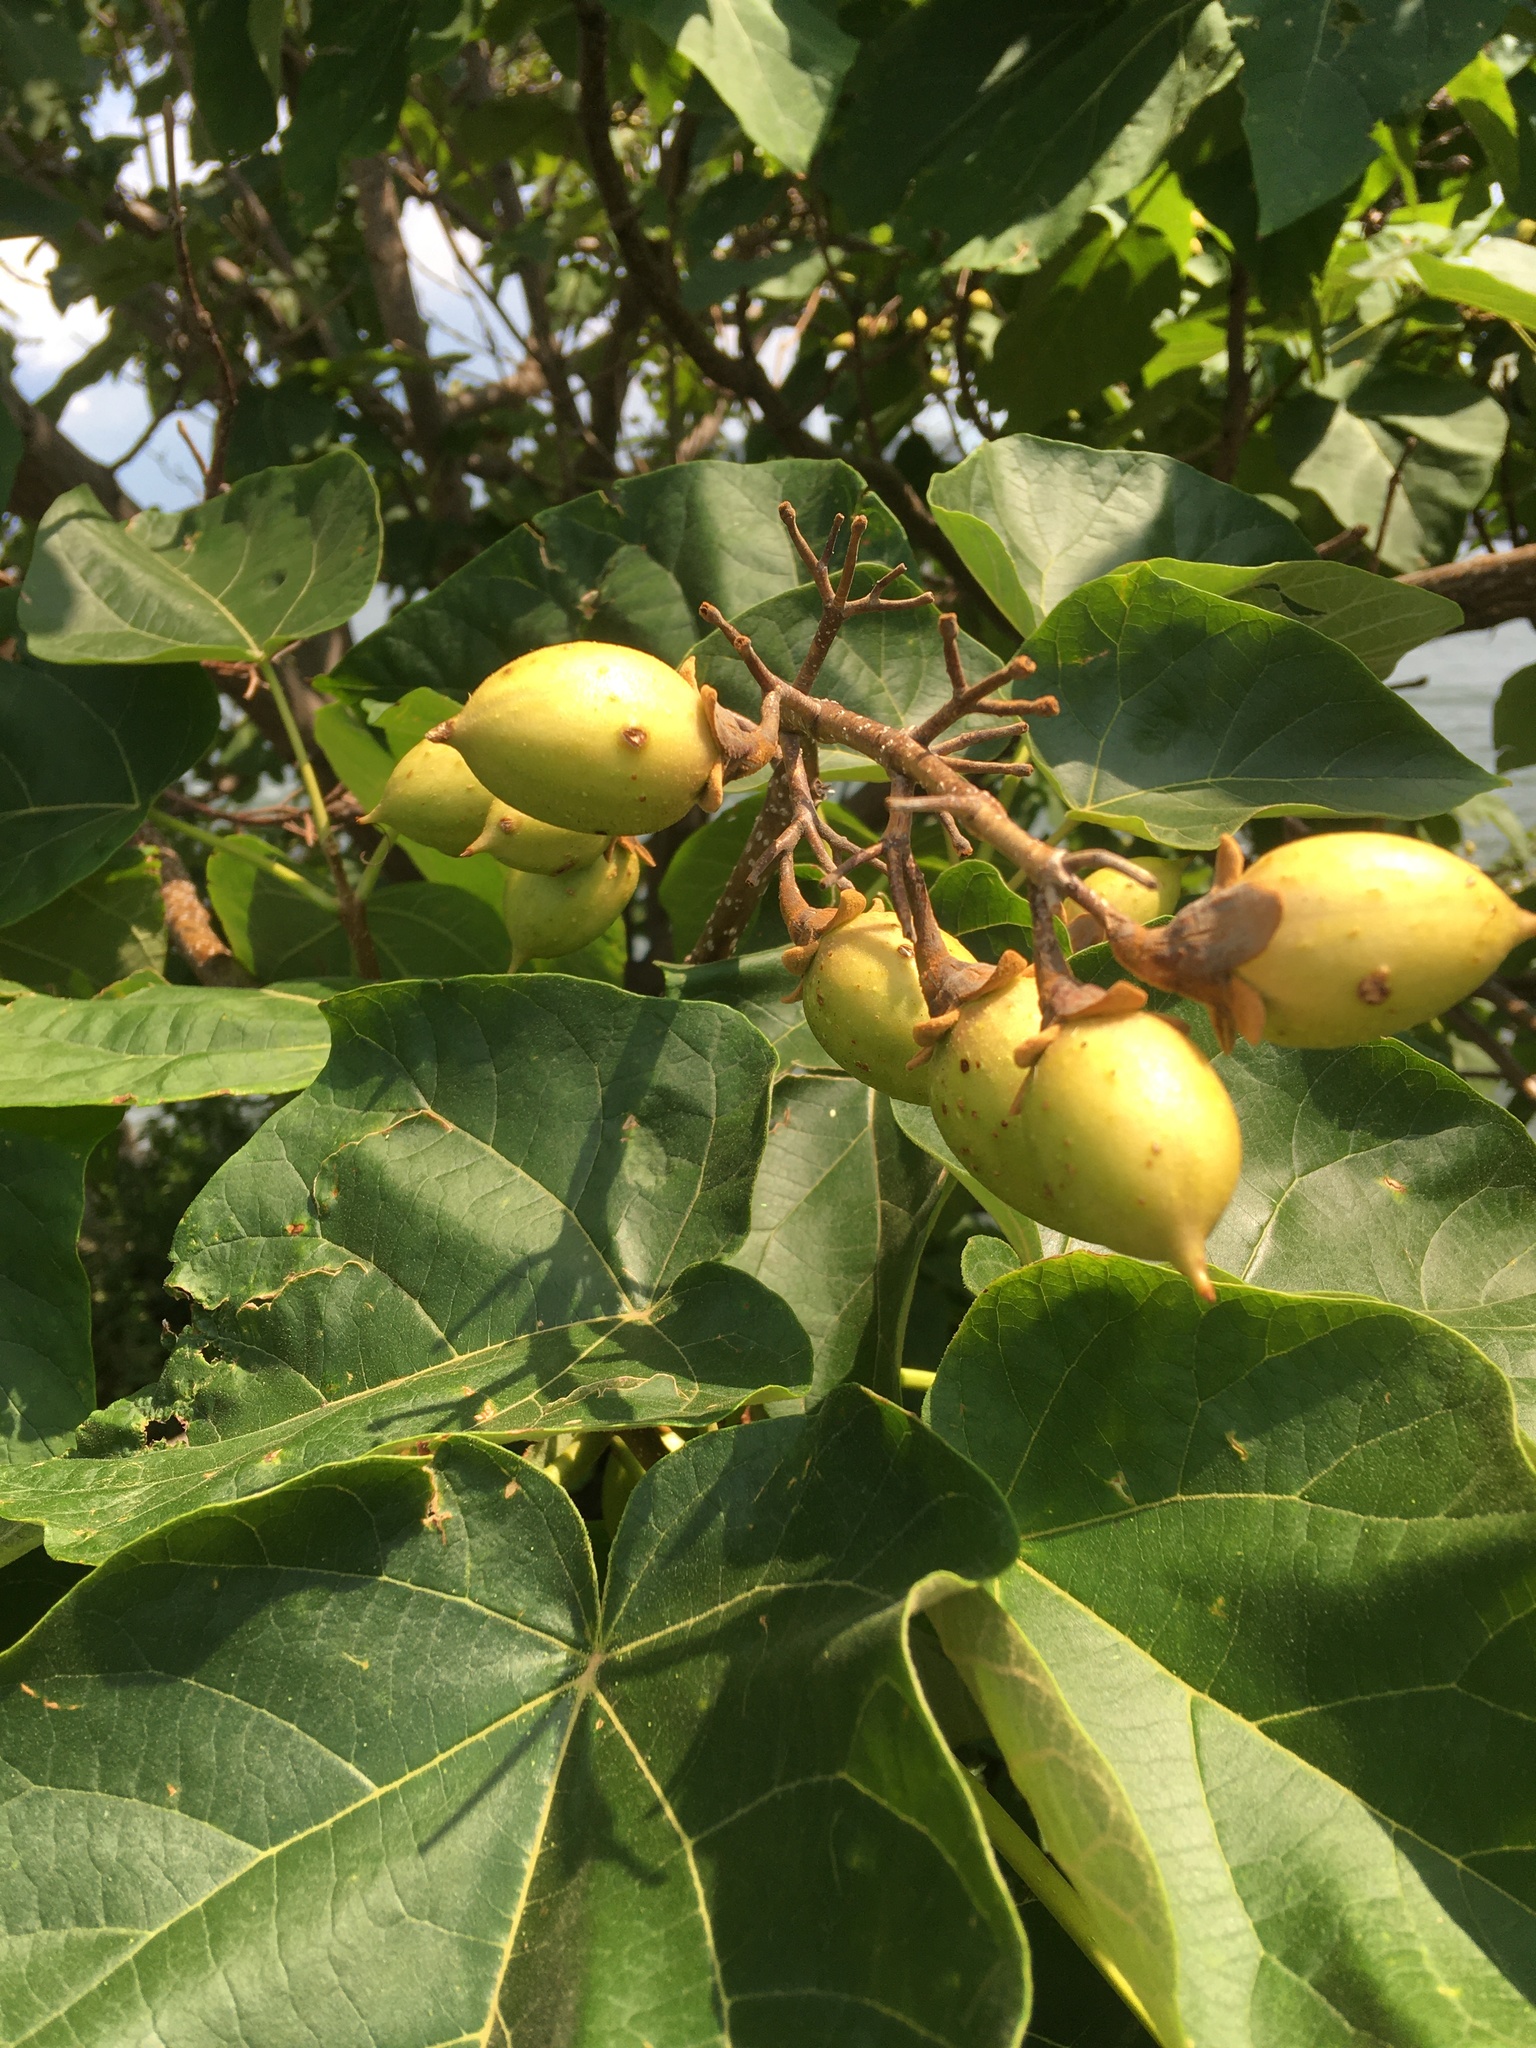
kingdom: Plantae
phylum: Tracheophyta
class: Magnoliopsida
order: Lamiales
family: Paulowniaceae
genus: Paulownia
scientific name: Paulownia tomentosa
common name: Foxglove-tree
